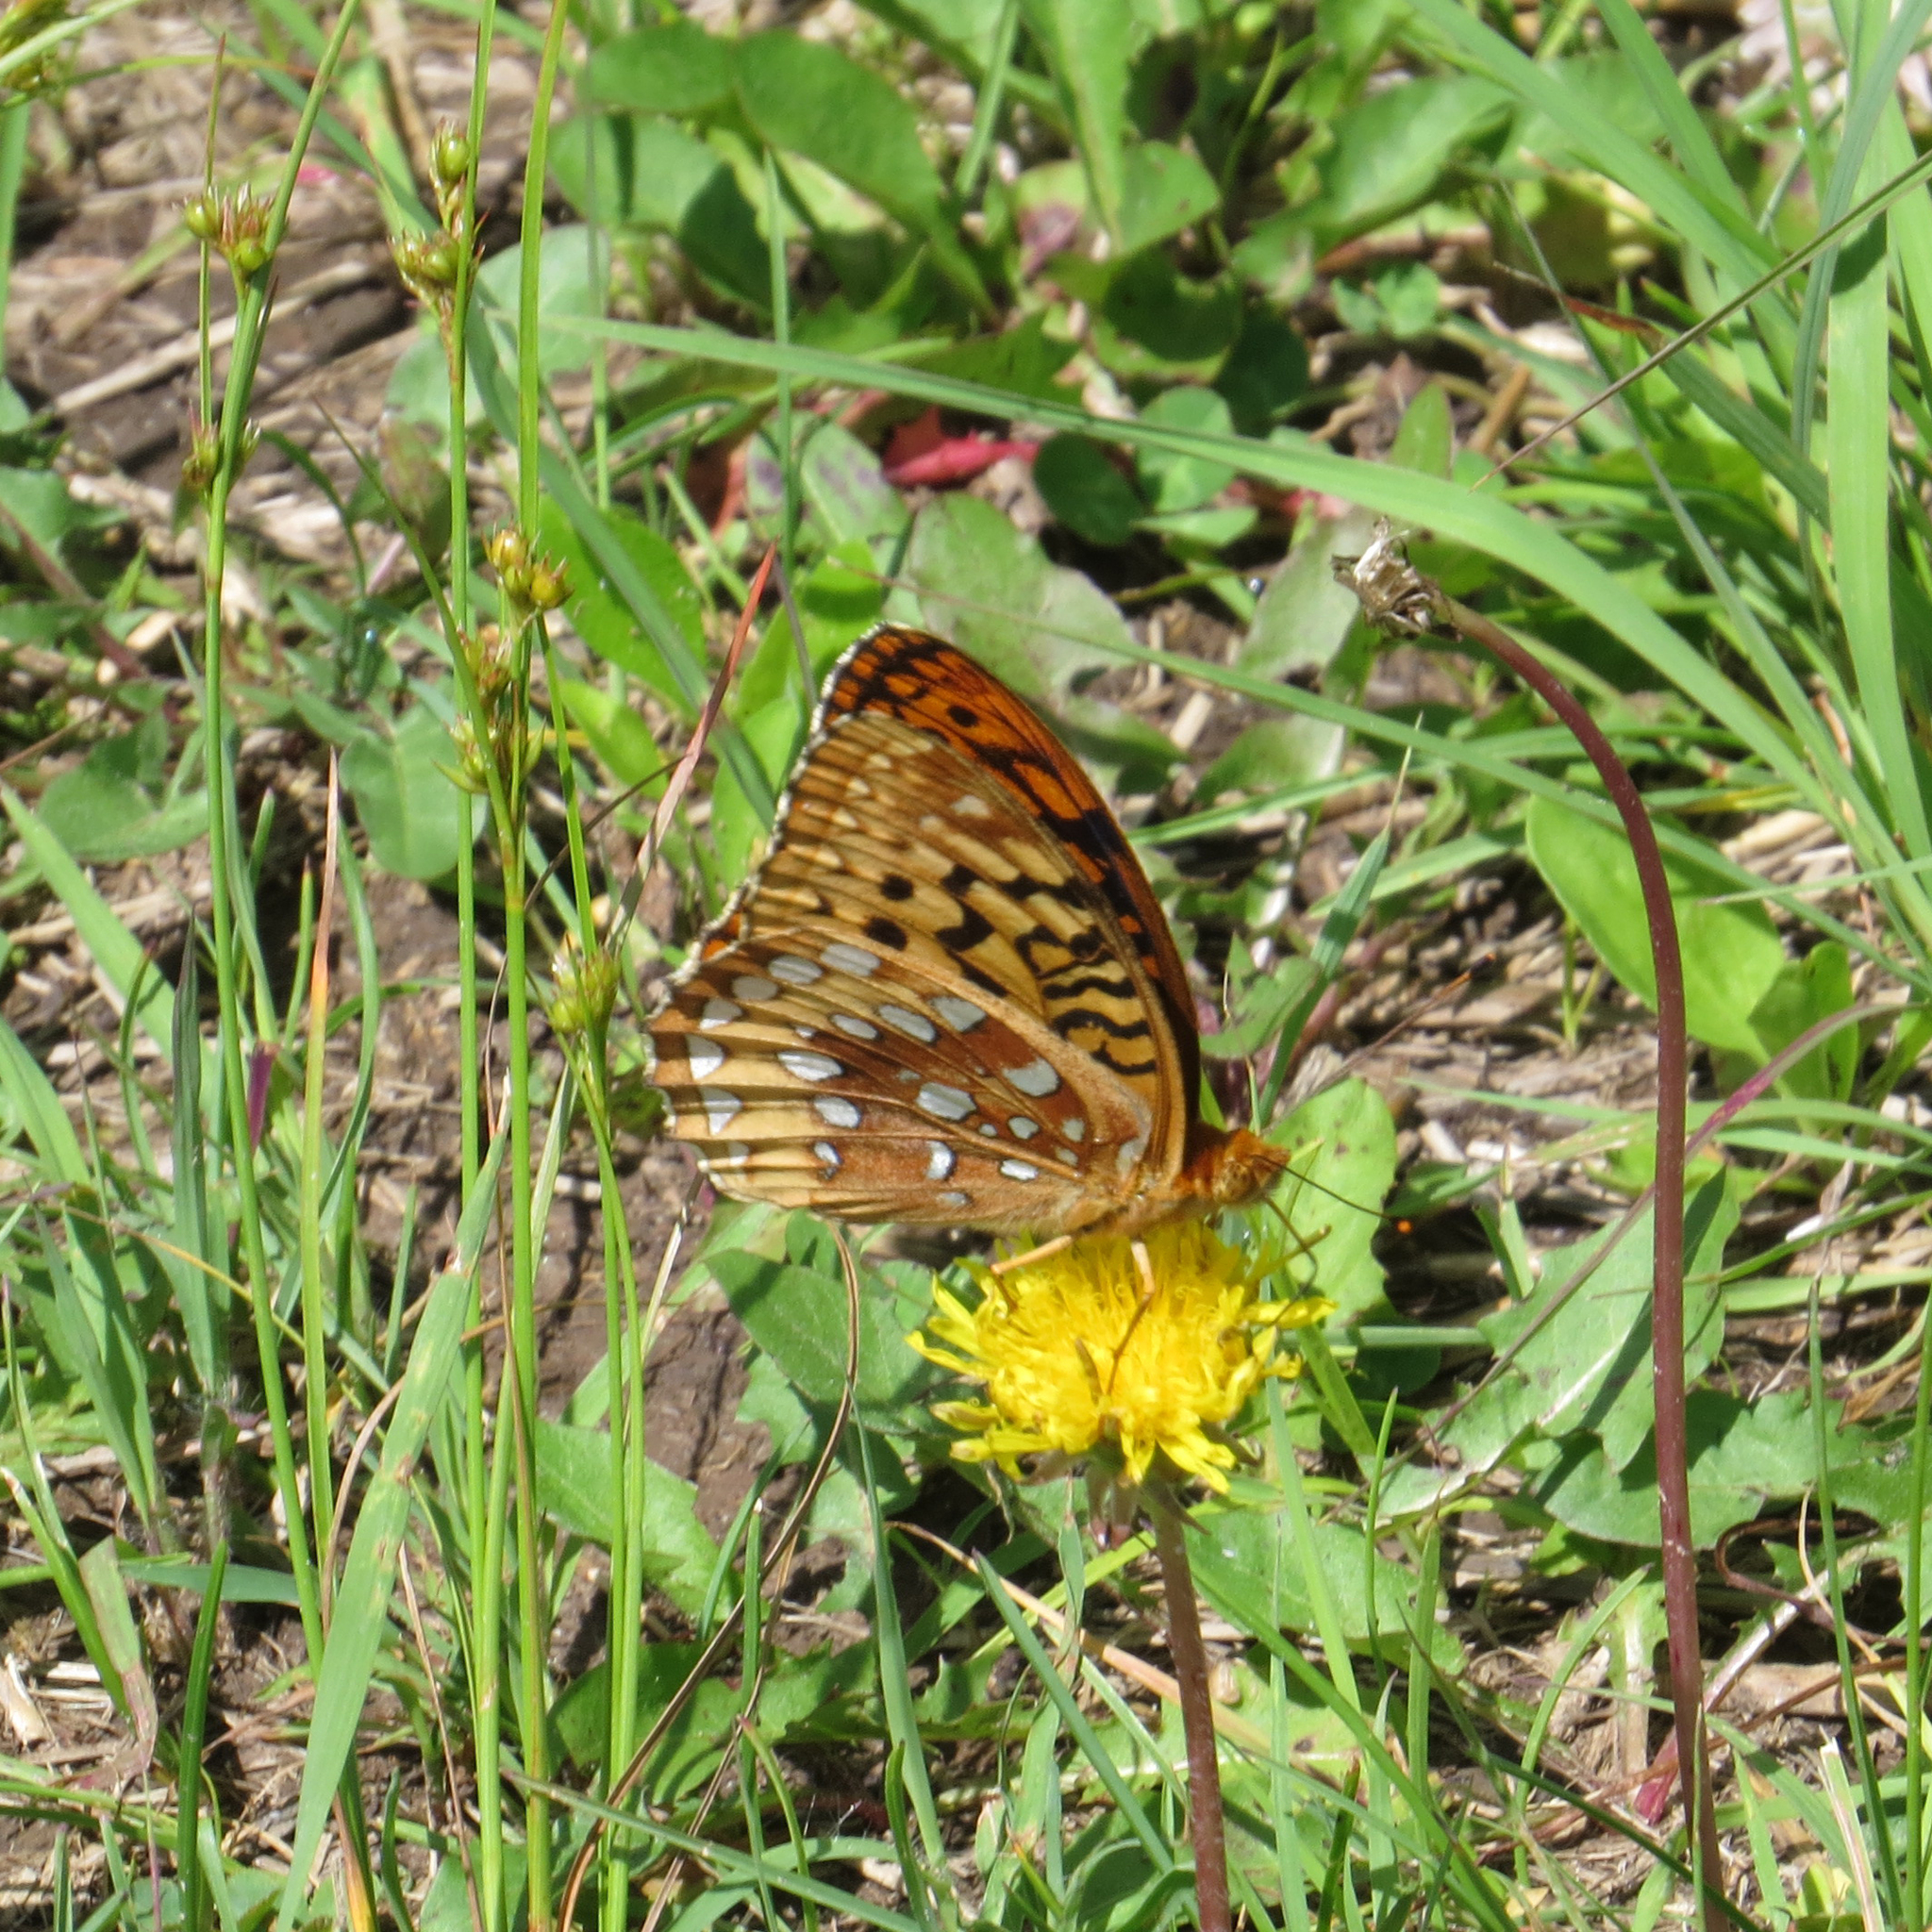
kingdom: Animalia
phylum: Arthropoda
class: Insecta
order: Lepidoptera
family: Nymphalidae
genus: Speyeria
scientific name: Speyeria cybele
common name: Great spangled fritillary
